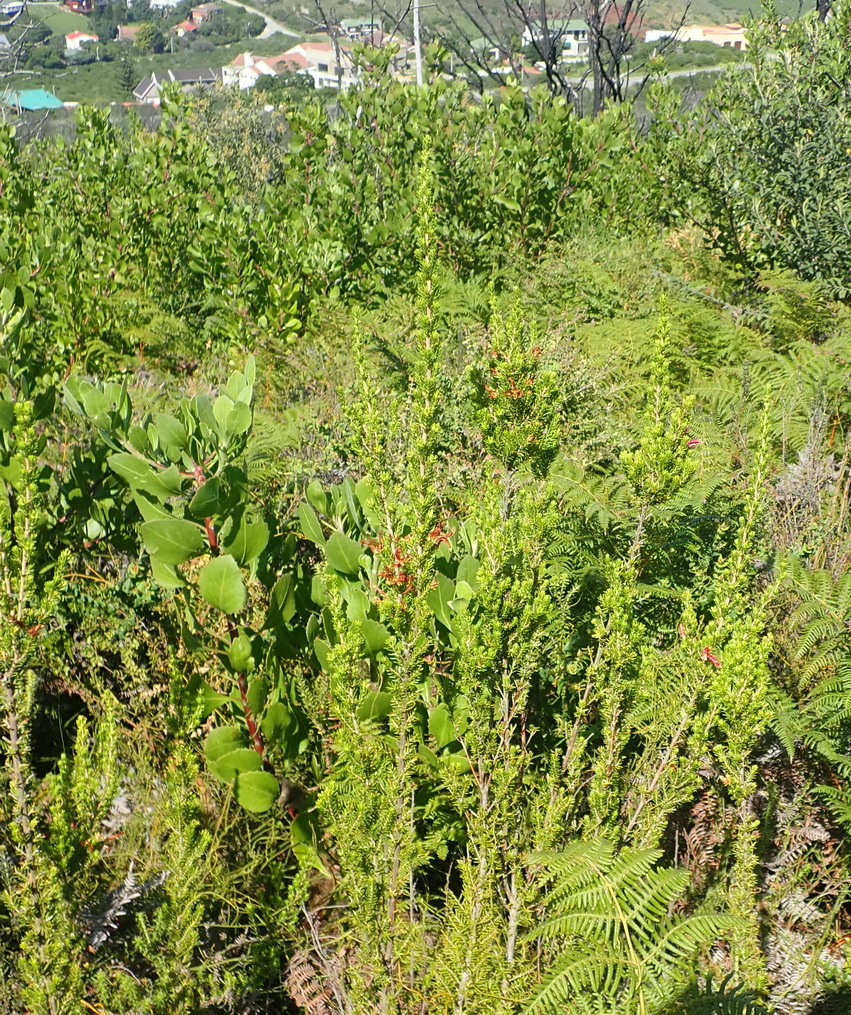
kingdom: Plantae
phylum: Tracheophyta
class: Magnoliopsida
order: Ericales
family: Ericaceae
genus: Erica
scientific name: Erica discolor
